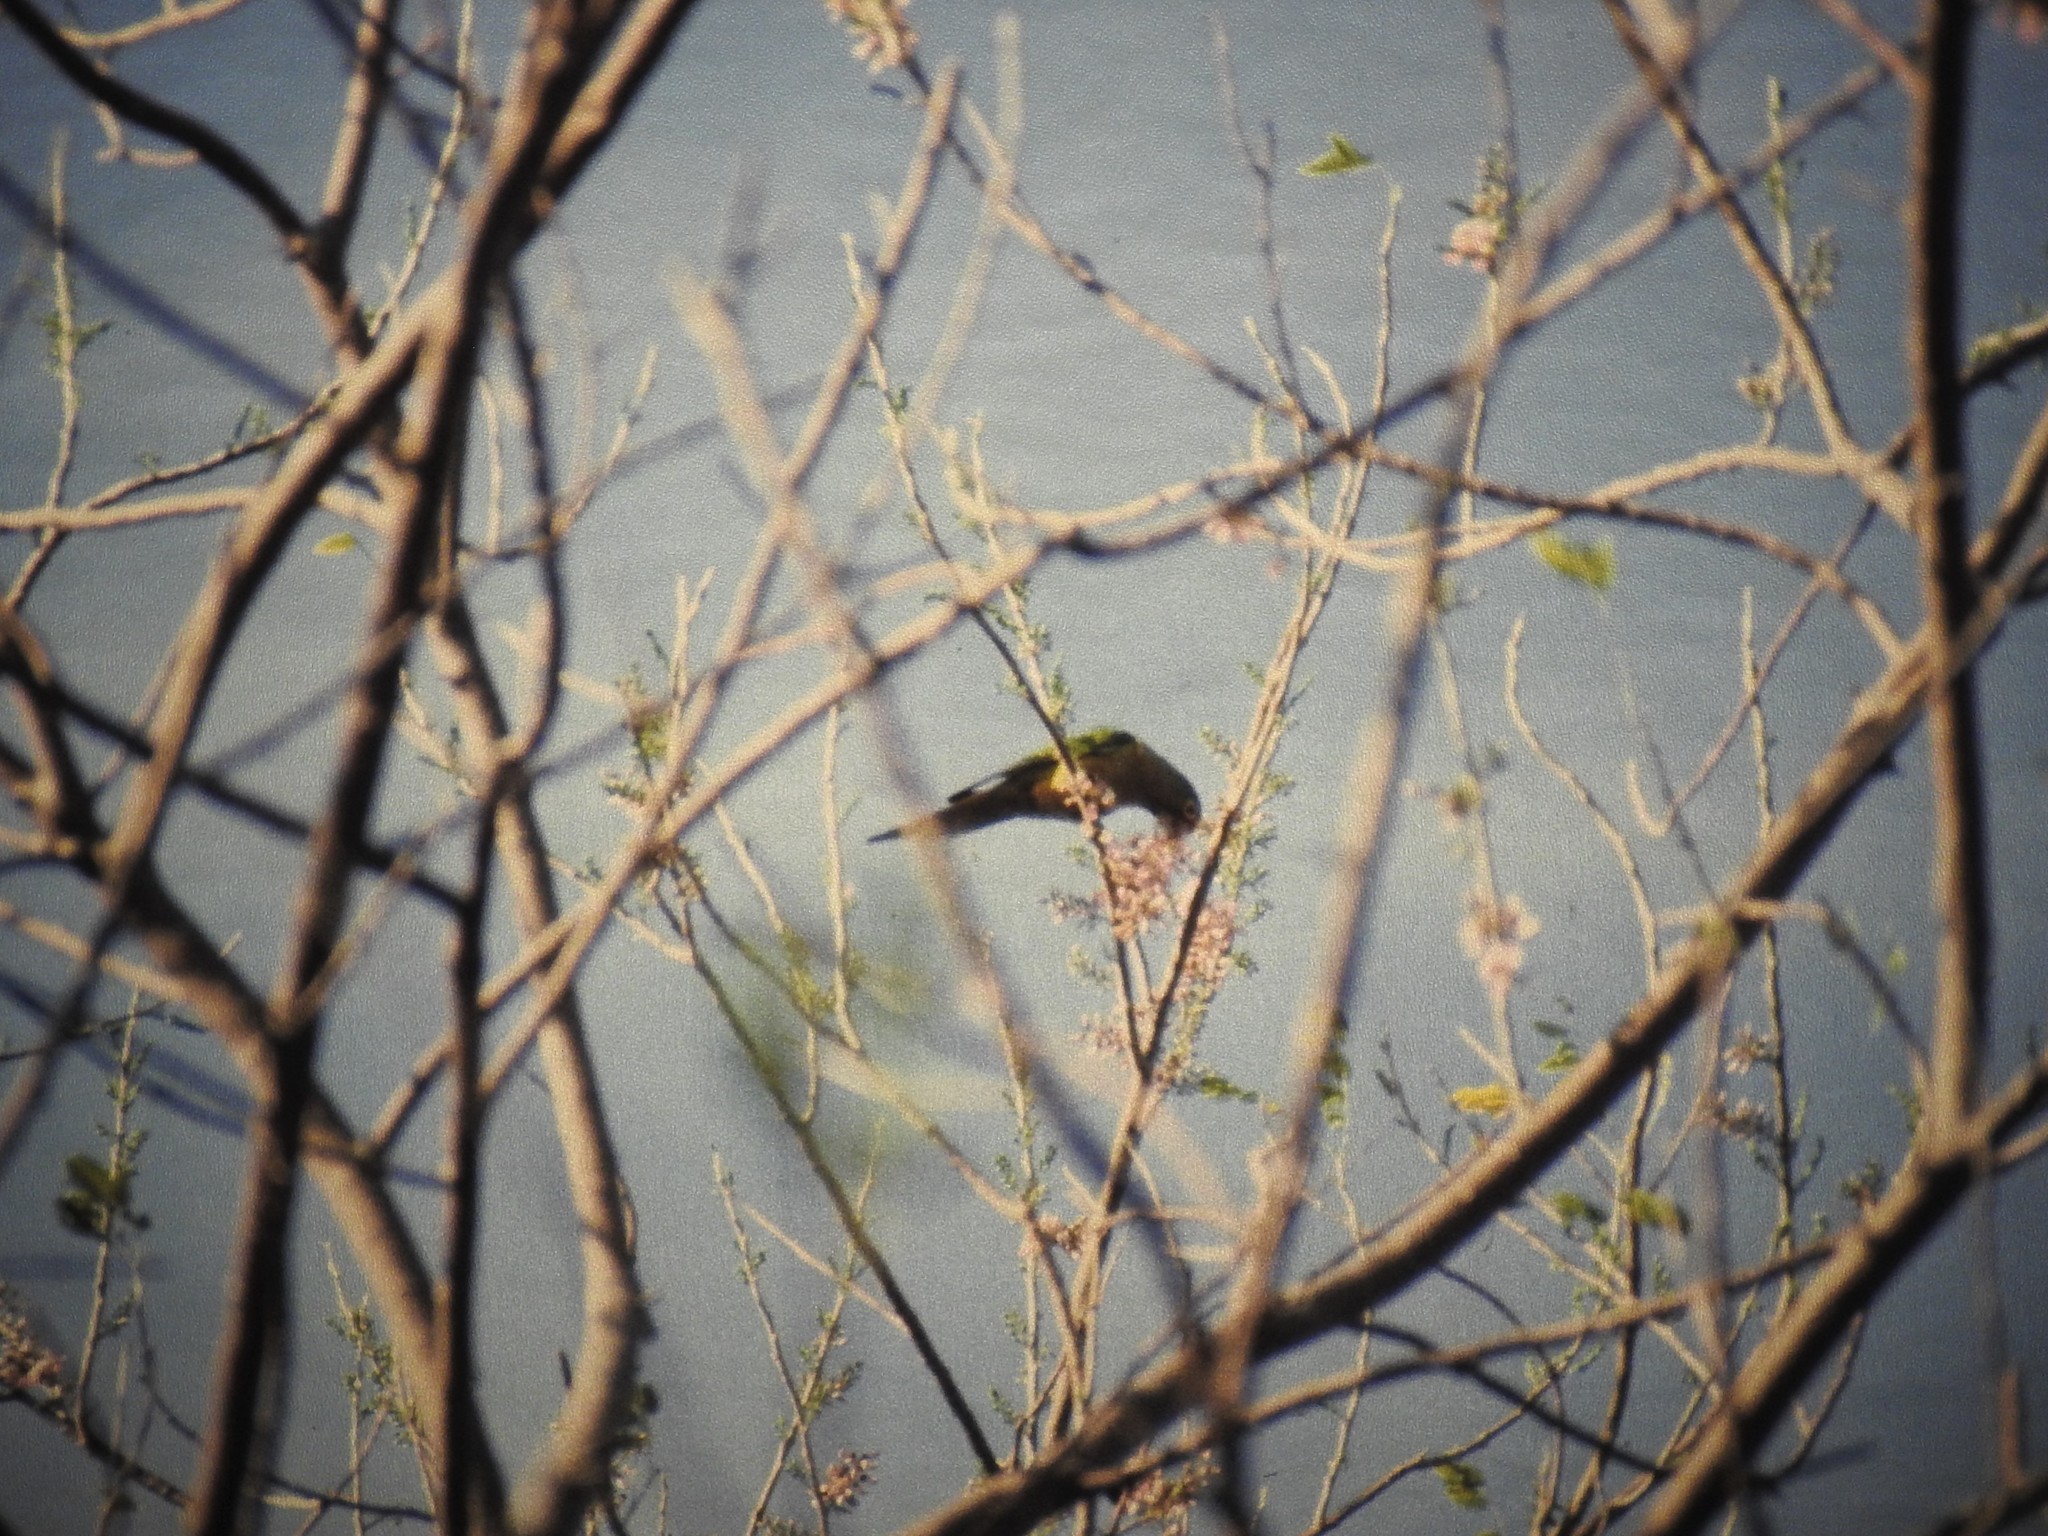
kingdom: Animalia
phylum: Chordata
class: Aves
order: Psittaciformes
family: Psittacidae
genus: Aratinga
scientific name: Aratinga canicularis
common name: Orange-fronted parakeet
